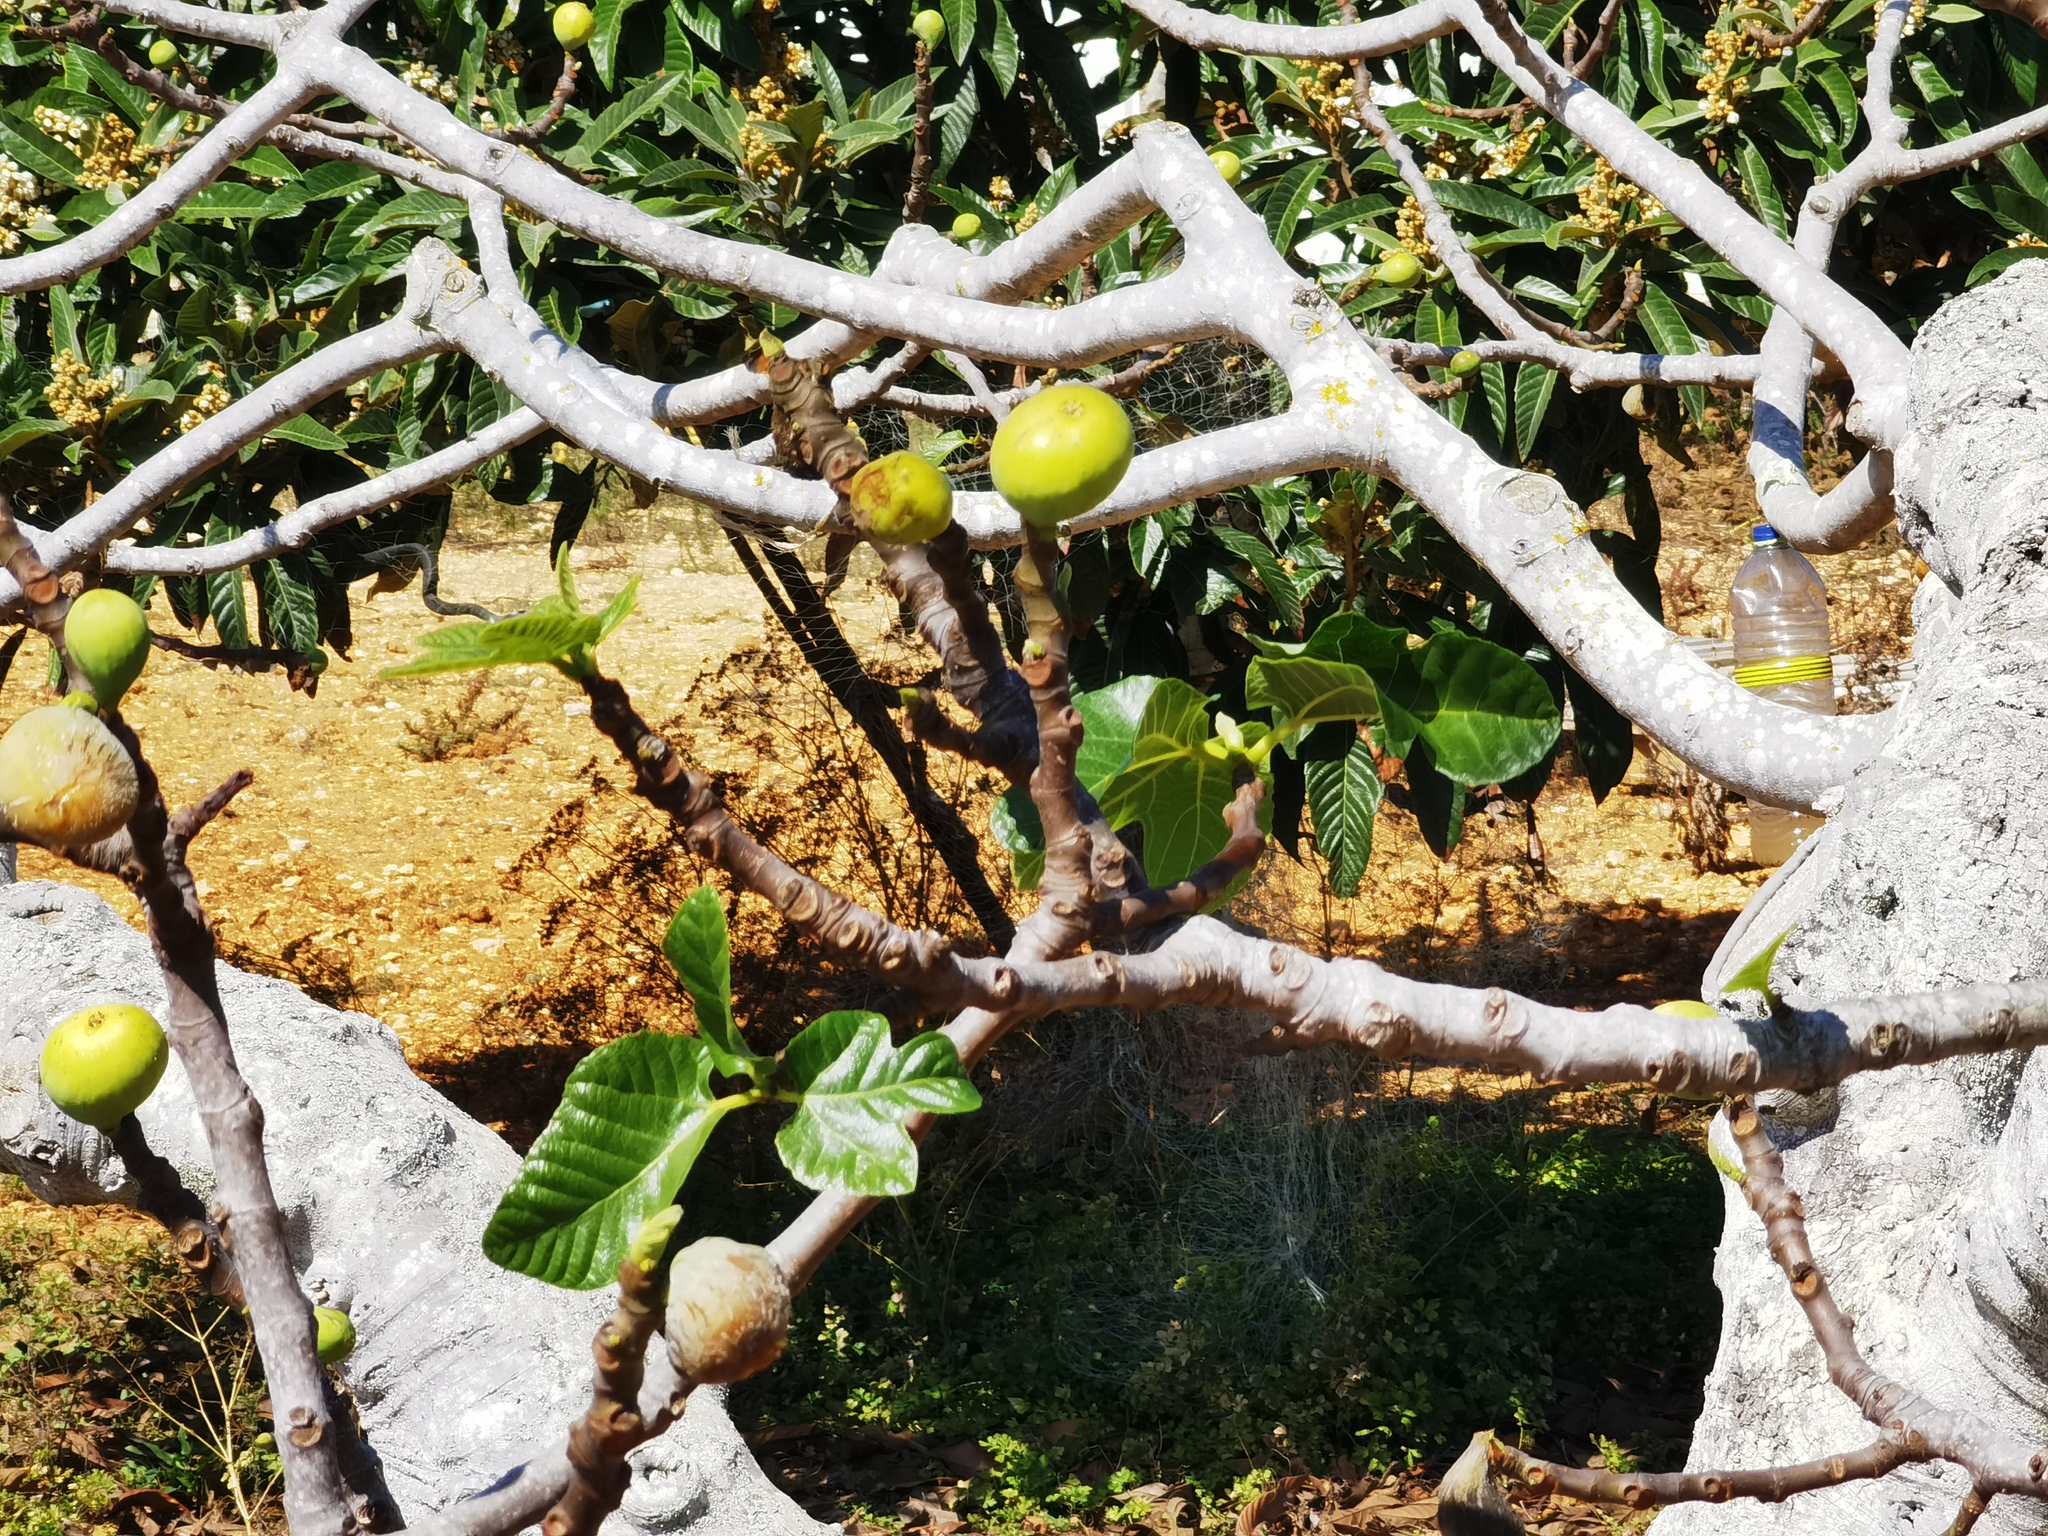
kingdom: Plantae
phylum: Tracheophyta
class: Magnoliopsida
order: Rosales
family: Moraceae
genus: Ficus
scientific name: Ficus carica
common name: Fig
